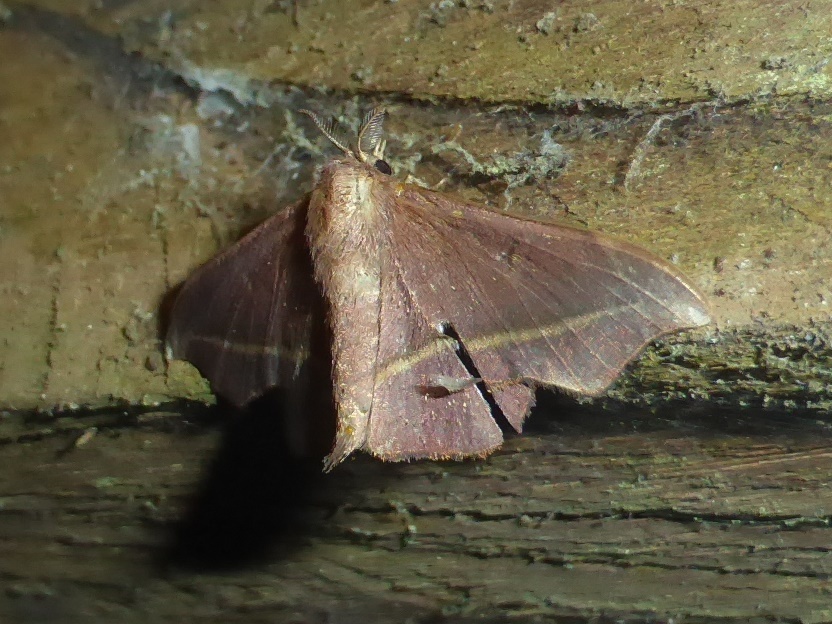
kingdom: Animalia
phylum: Arthropoda
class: Insecta
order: Lepidoptera
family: Mimallonidae
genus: Ulaluma
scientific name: Ulaluma valva
